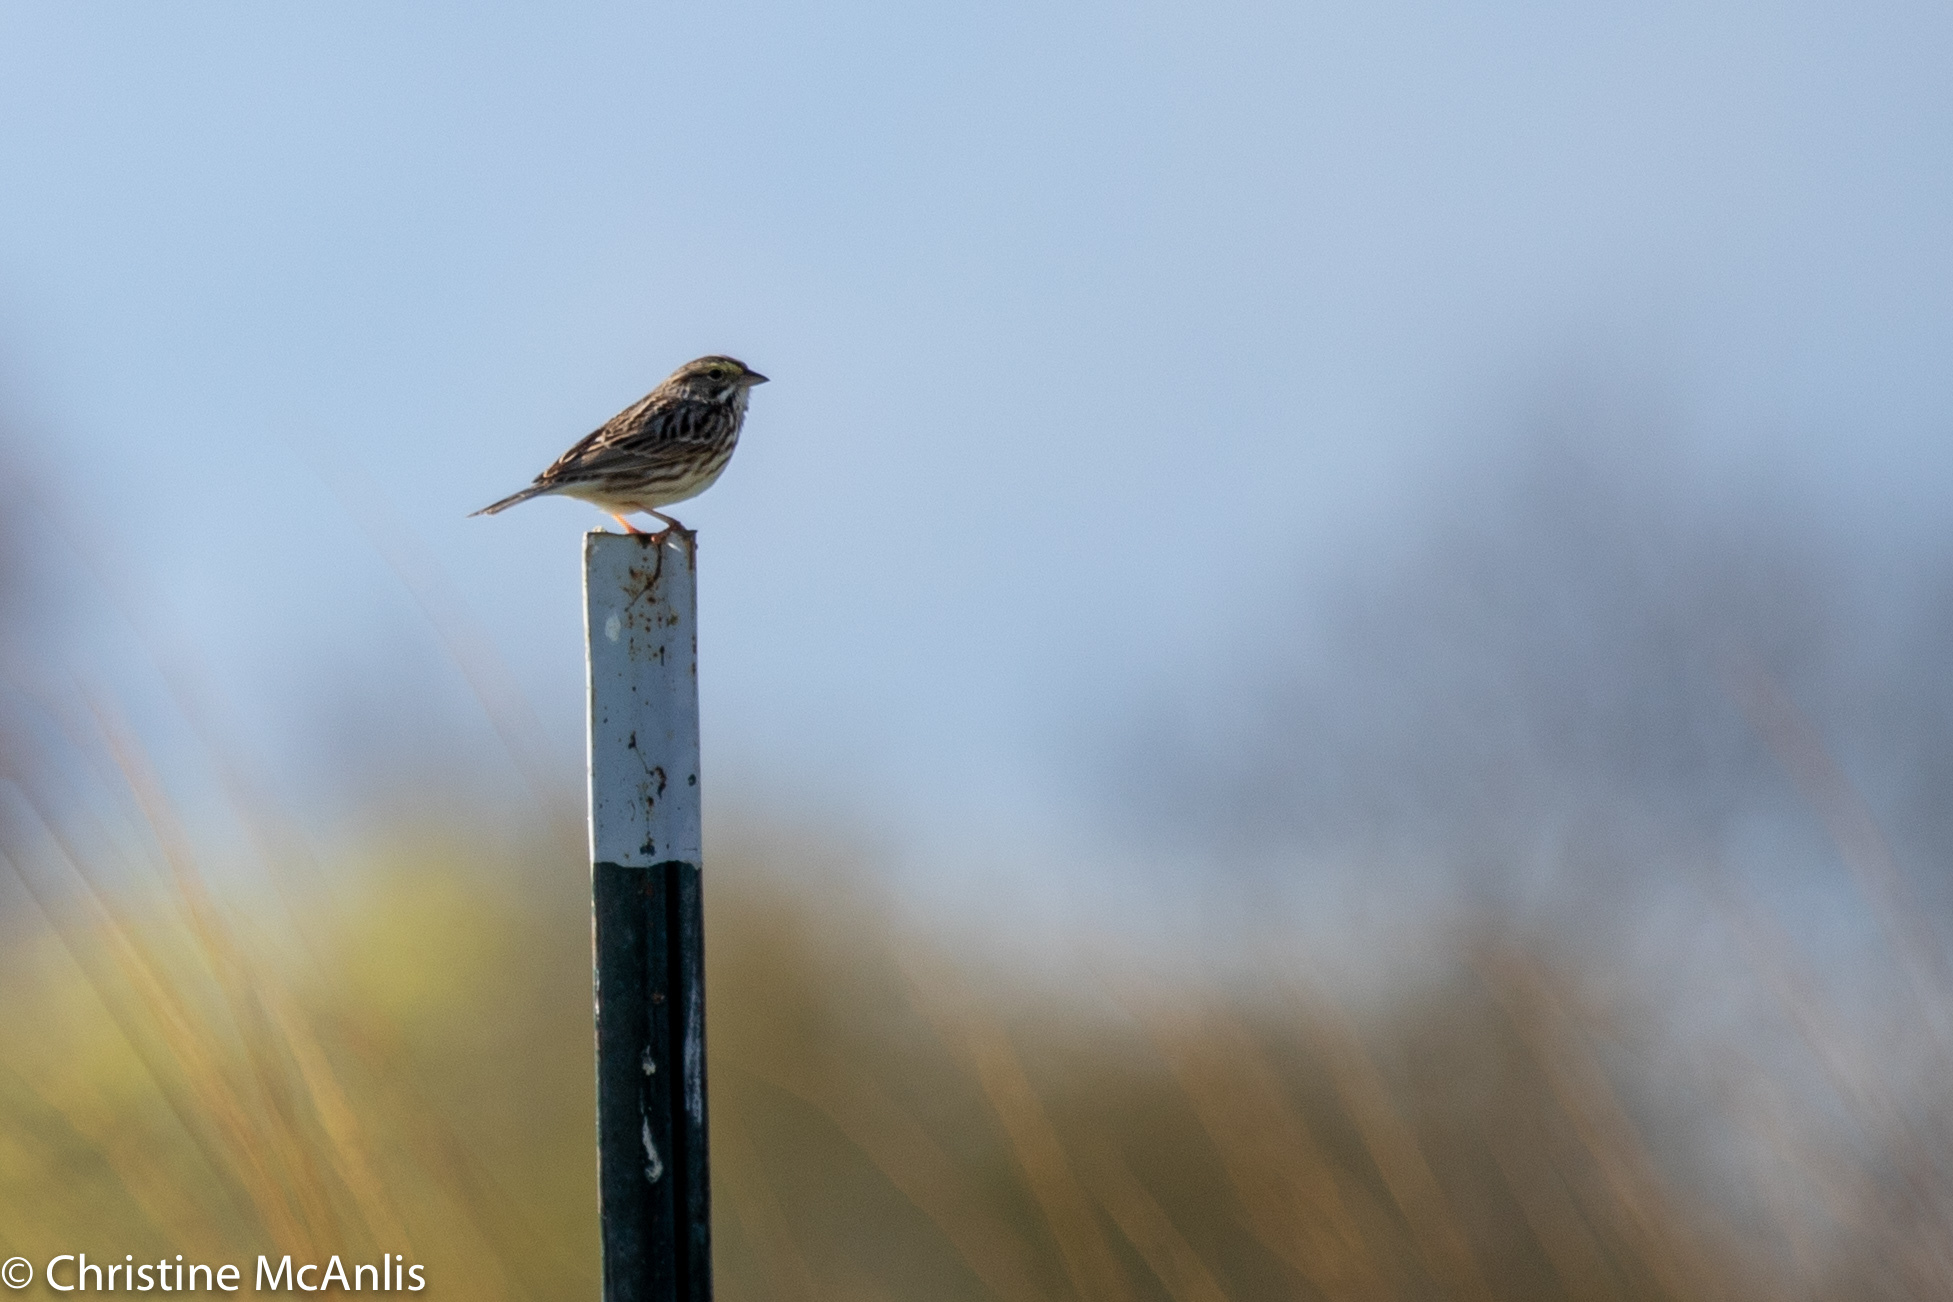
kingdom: Animalia
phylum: Chordata
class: Aves
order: Passeriformes
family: Passerellidae
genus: Passerculus
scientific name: Passerculus sandwichensis
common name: Savannah sparrow
